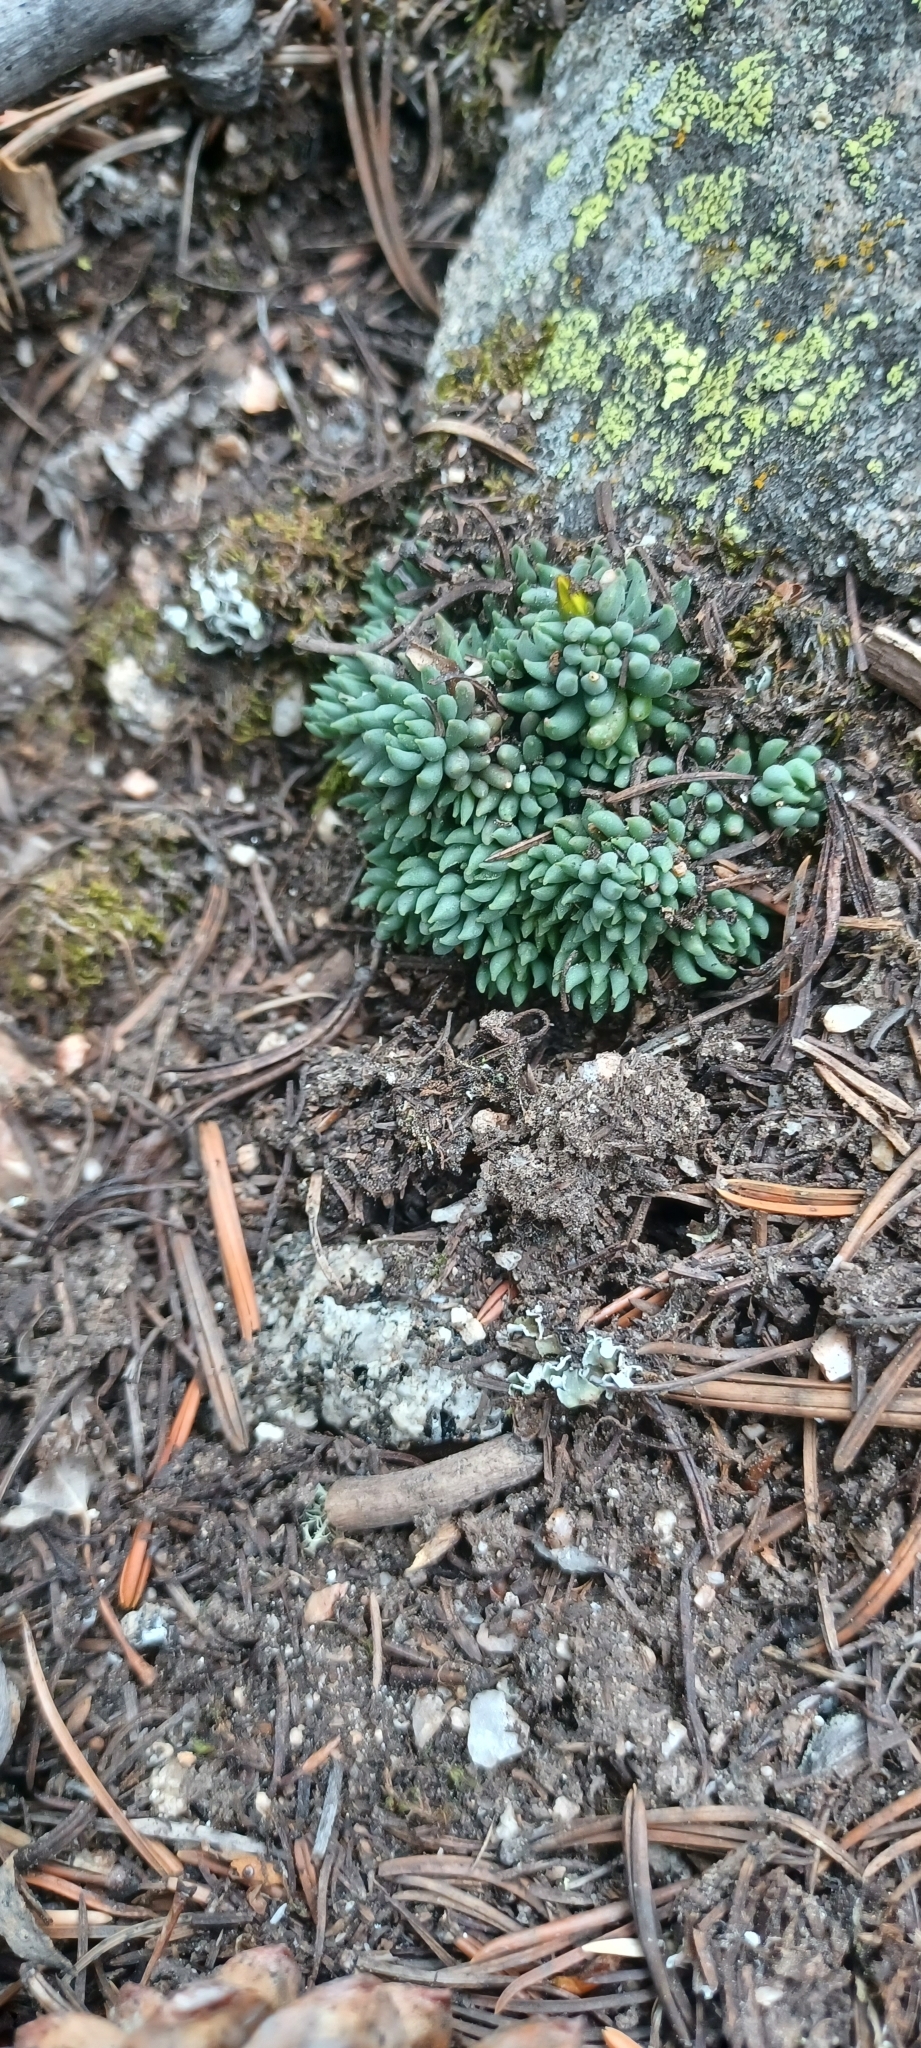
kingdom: Plantae
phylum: Tracheophyta
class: Magnoliopsida
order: Saxifragales
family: Crassulaceae
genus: Sedum
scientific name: Sedum lanceolatum
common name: Common stonecrop
